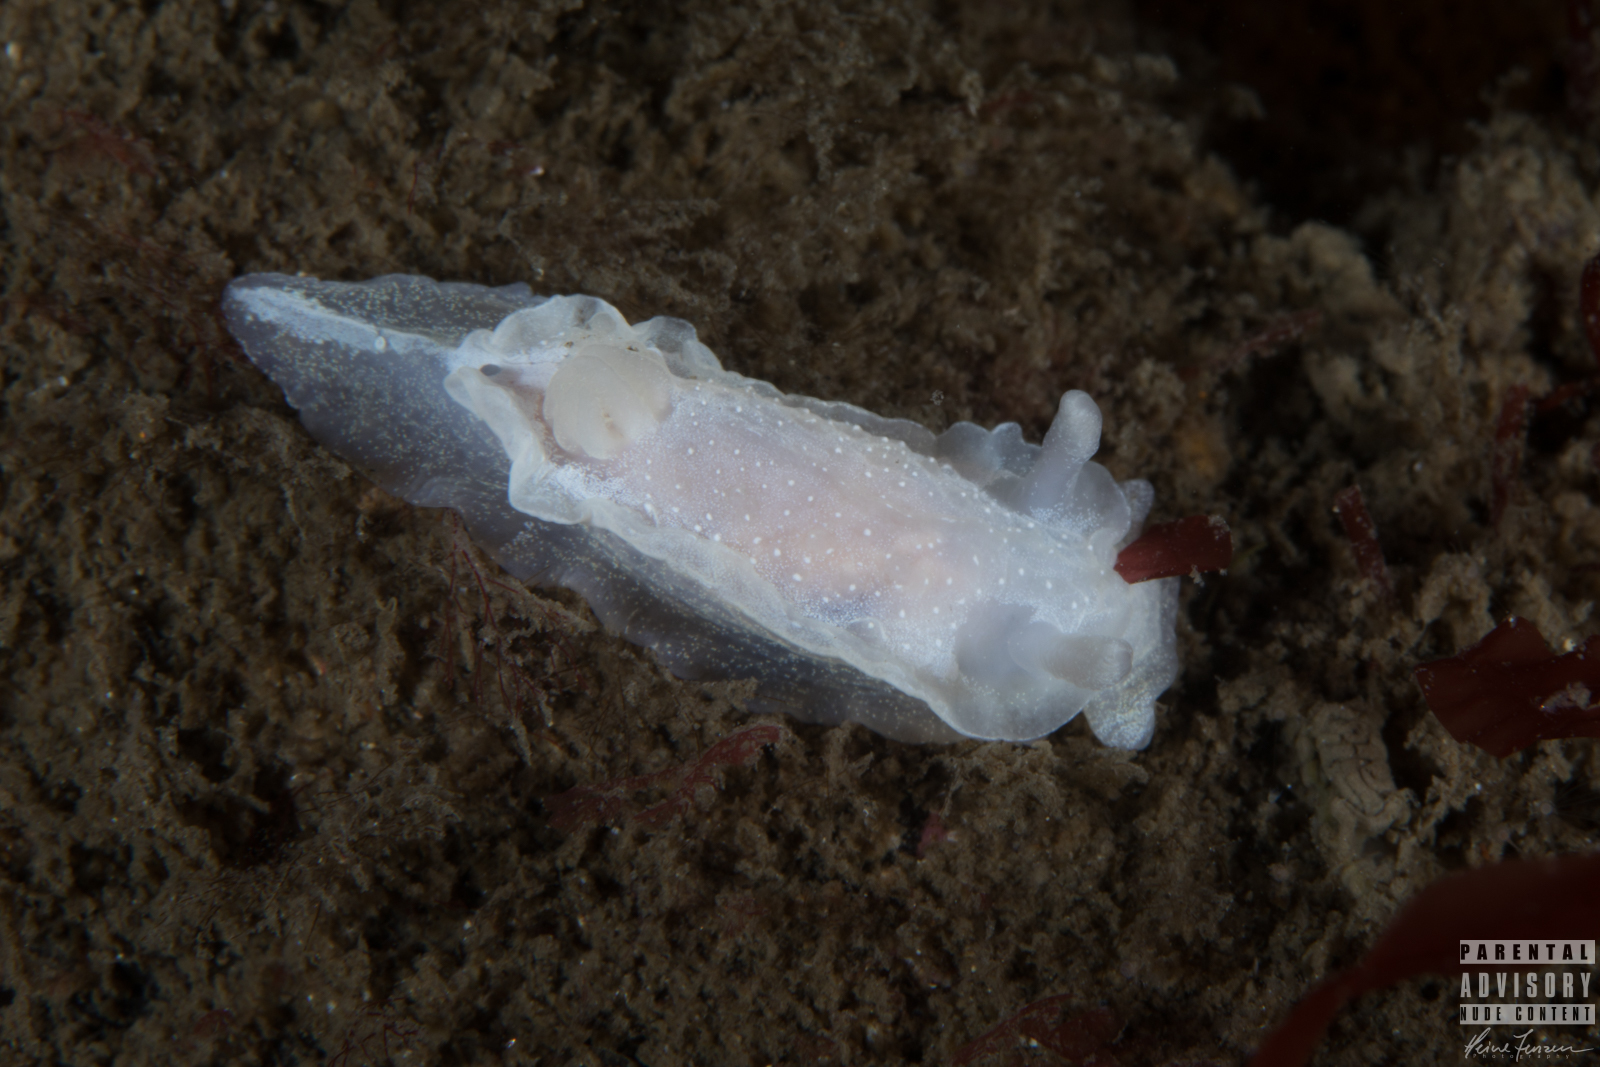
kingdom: Animalia
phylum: Mollusca
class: Gastropoda
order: Nudibranchia
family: Goniodorididae
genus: Okenia
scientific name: Okenia
